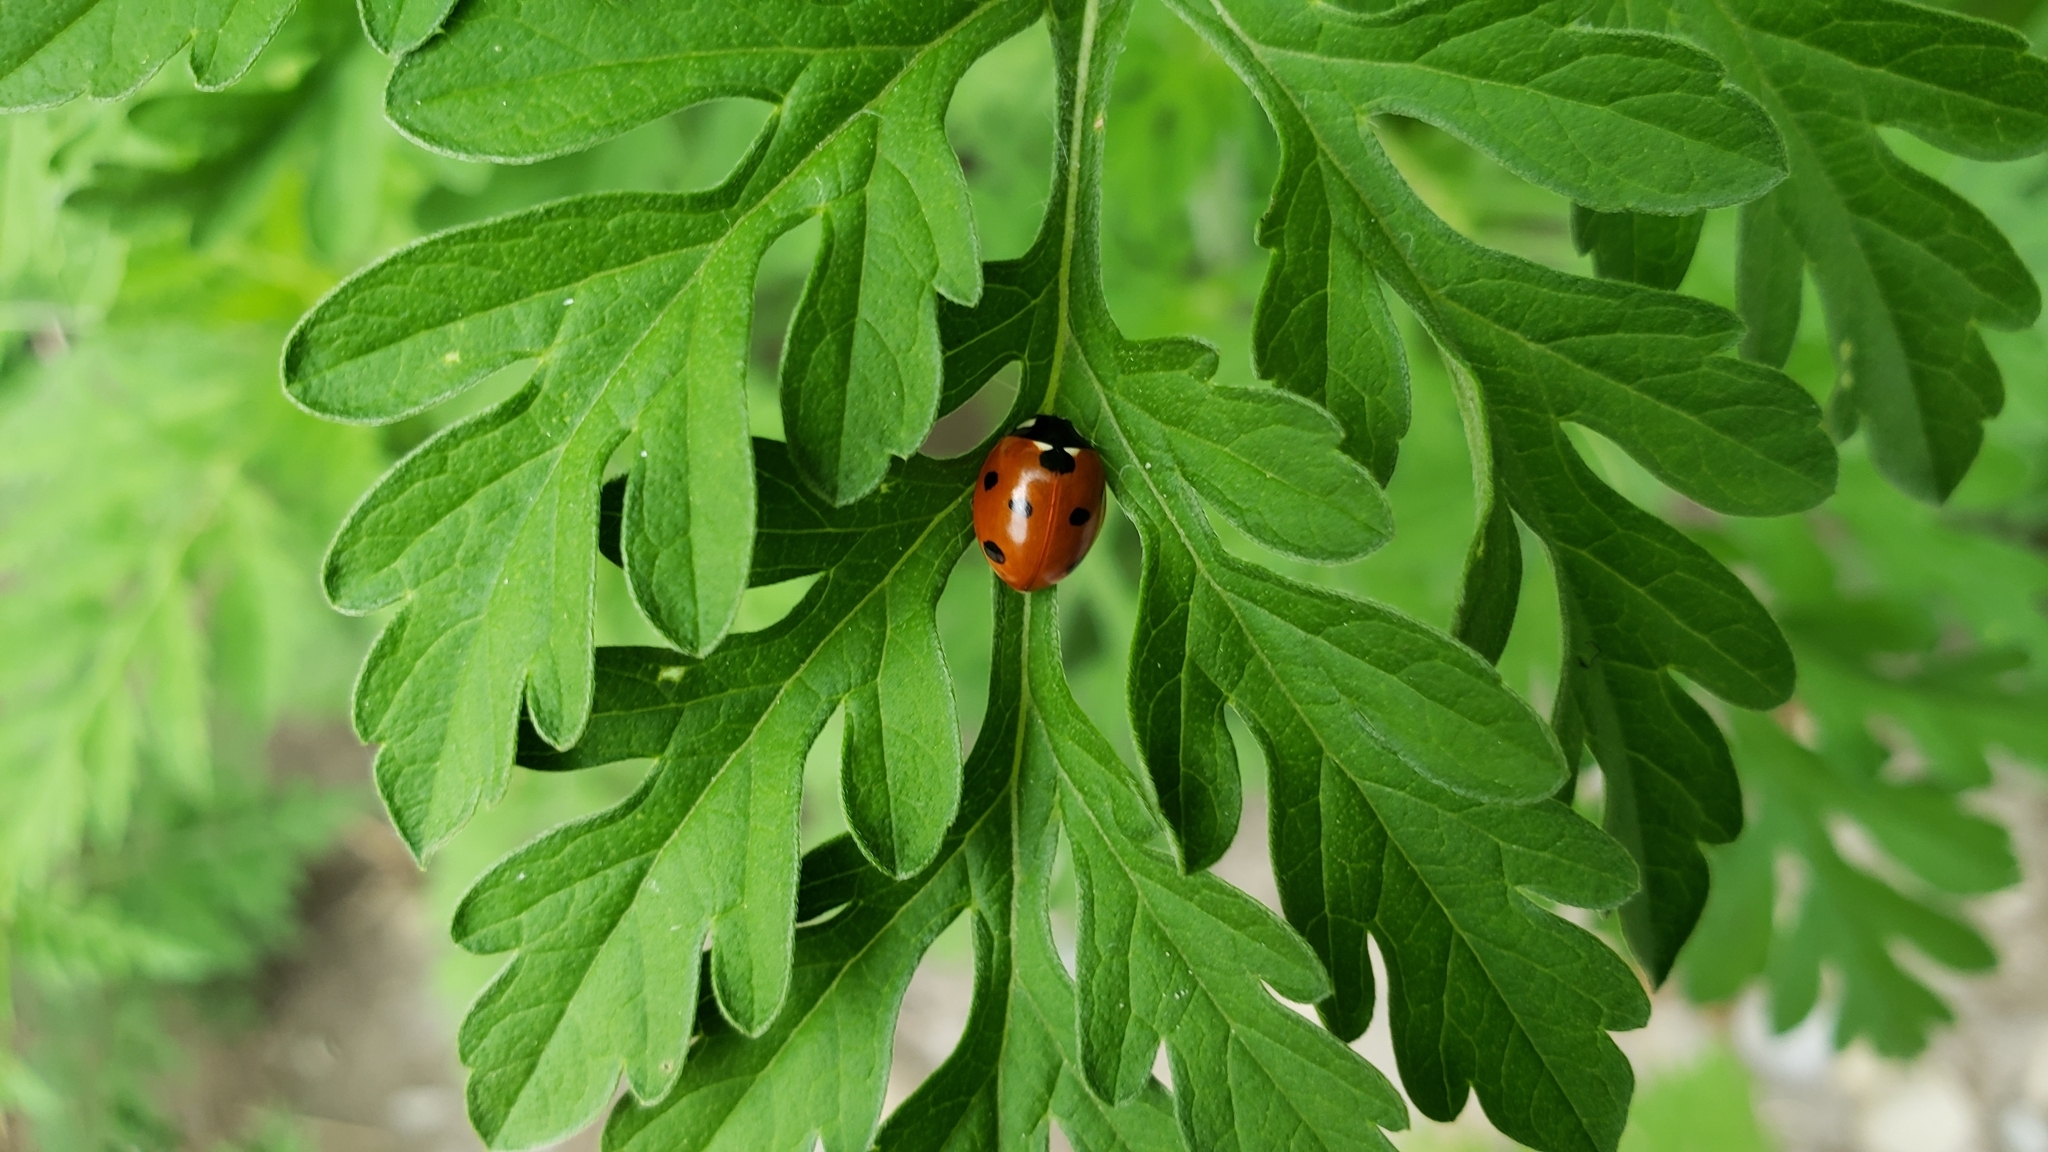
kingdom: Animalia
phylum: Arthropoda
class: Insecta
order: Coleoptera
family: Coccinellidae
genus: Coccinella
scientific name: Coccinella septempunctata
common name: Sevenspotted lady beetle
